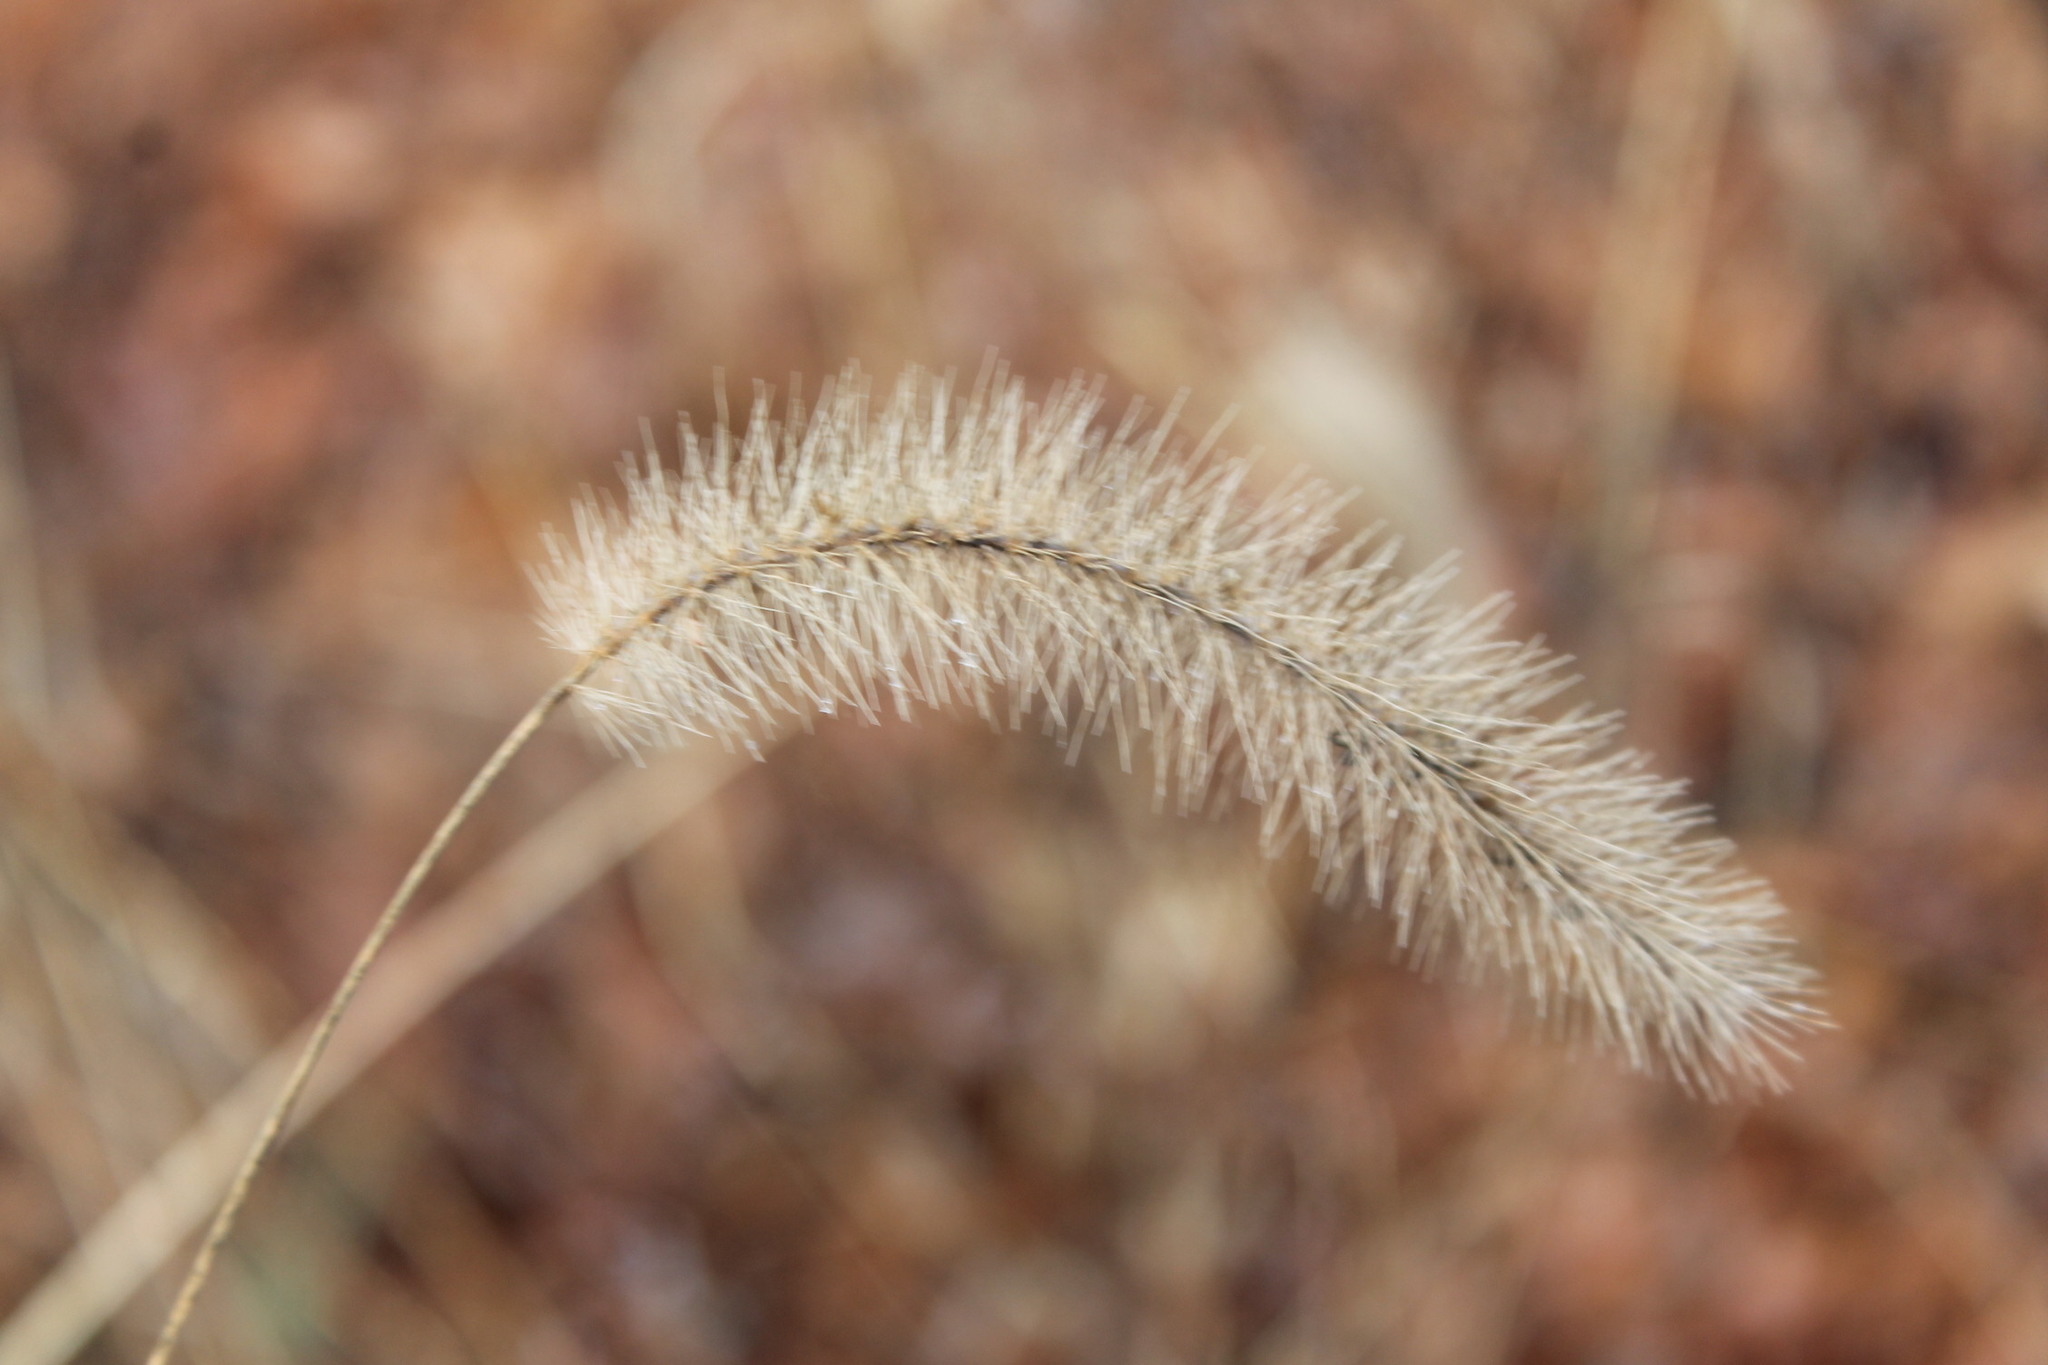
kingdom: Plantae
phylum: Tracheophyta
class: Liliopsida
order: Poales
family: Poaceae
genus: Setaria
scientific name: Setaria faberi
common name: Nodding bristle-grass
